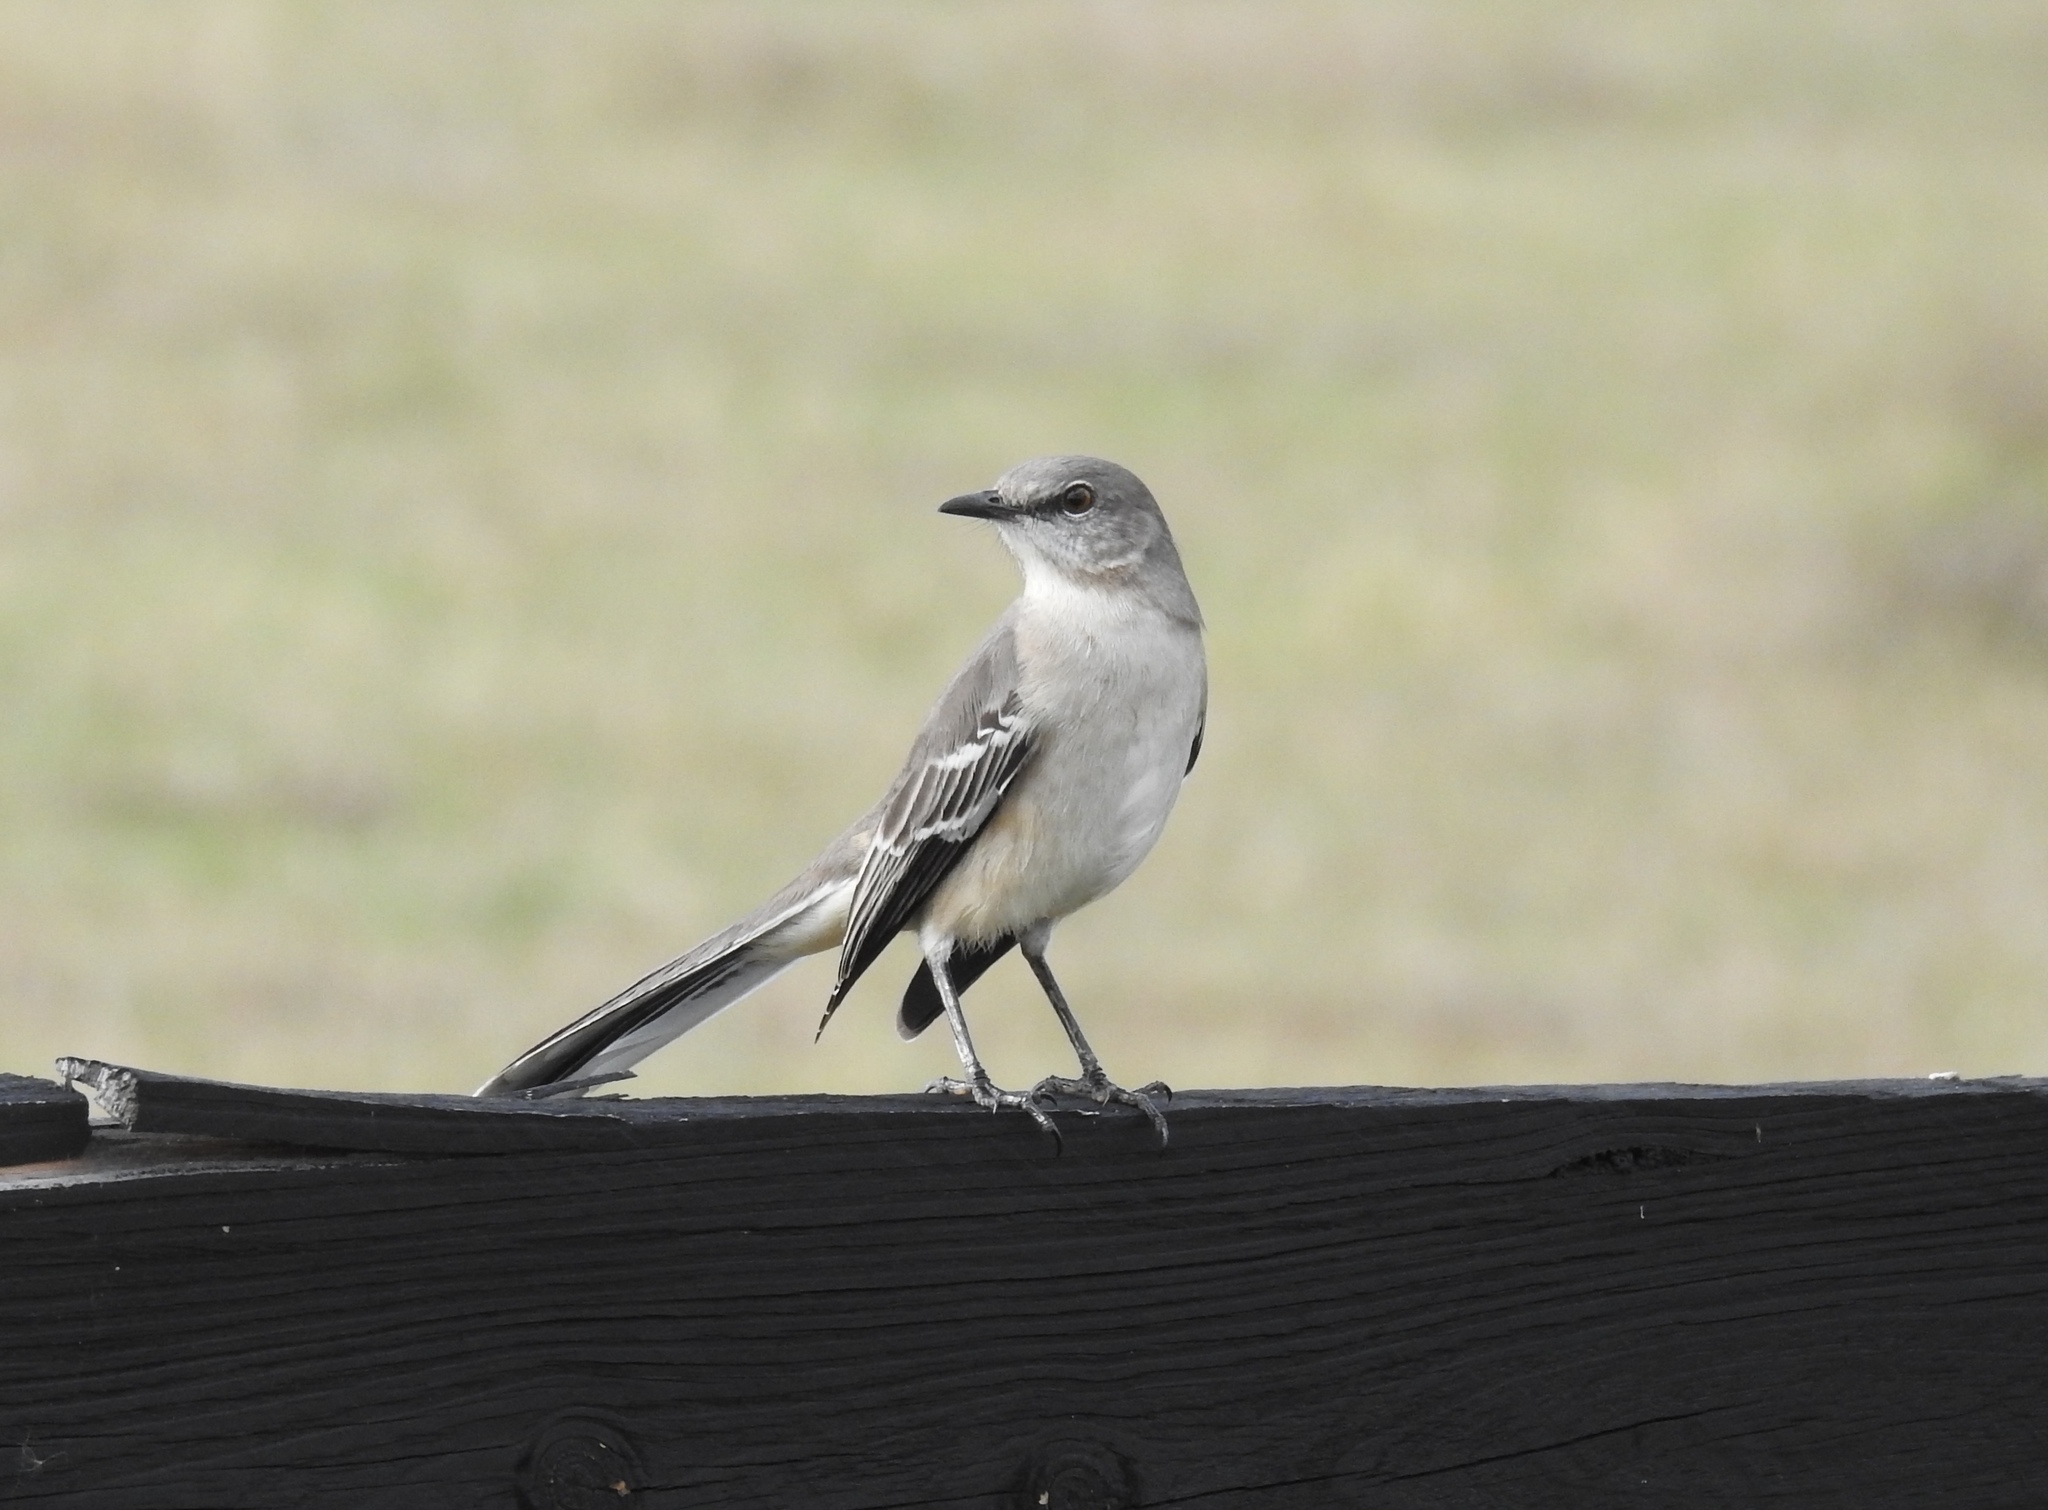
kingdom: Animalia
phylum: Chordata
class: Aves
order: Passeriformes
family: Mimidae
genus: Mimus
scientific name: Mimus polyglottos
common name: Northern mockingbird
